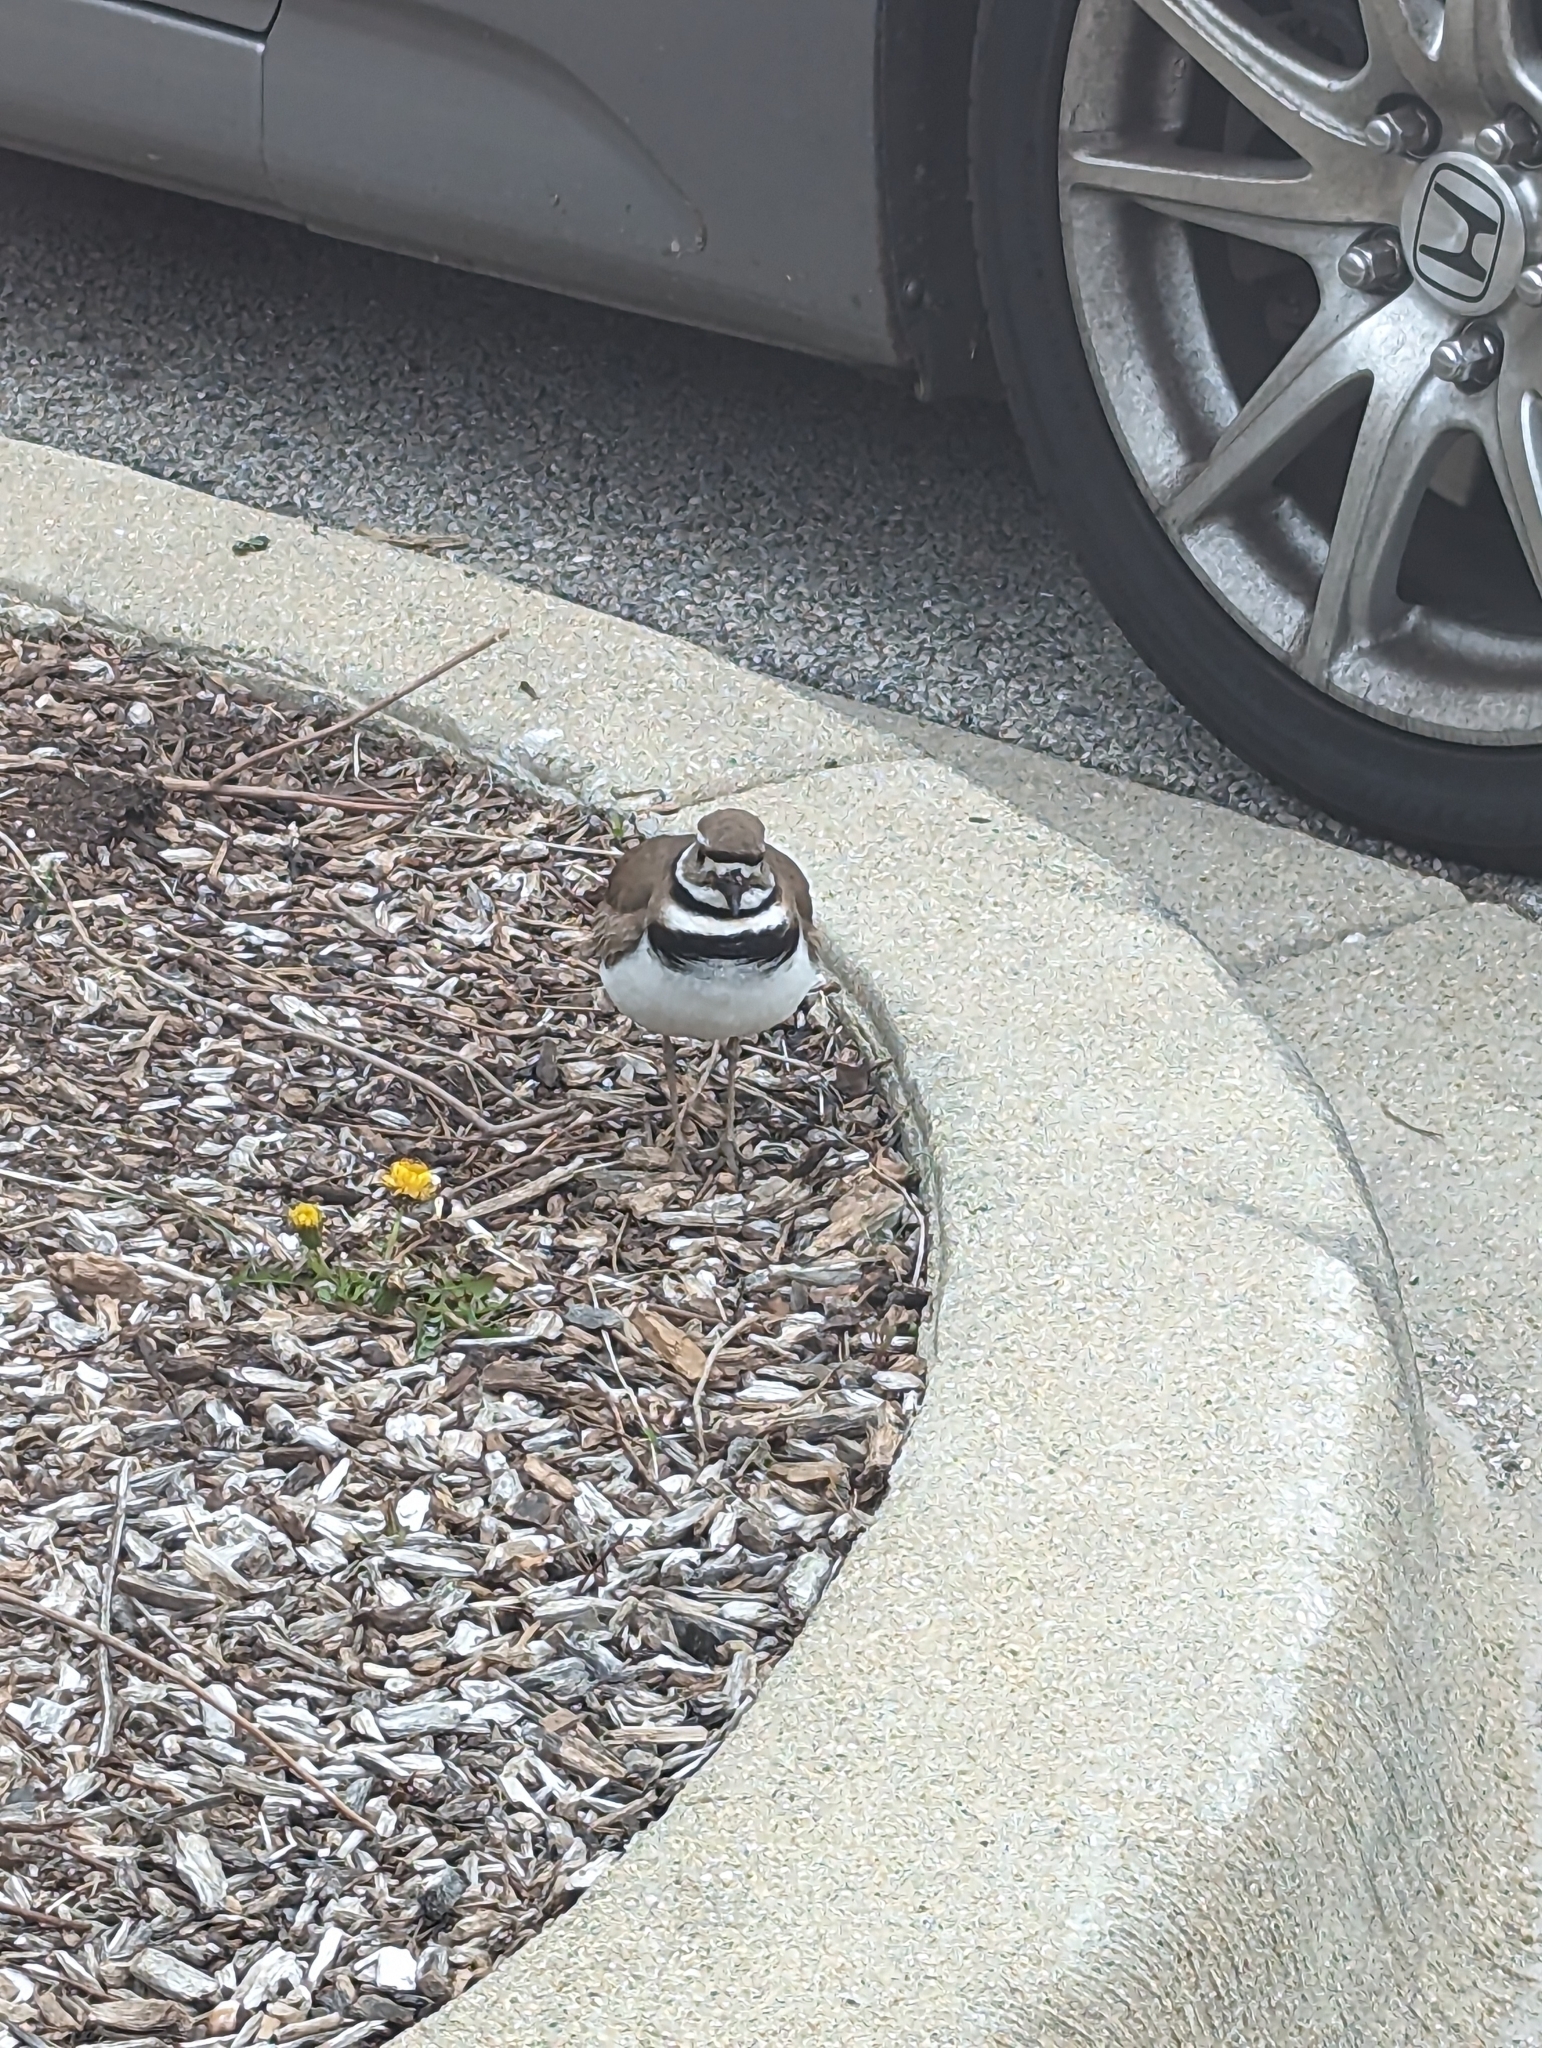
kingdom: Animalia
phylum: Chordata
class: Aves
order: Charadriiformes
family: Charadriidae
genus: Charadrius
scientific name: Charadrius vociferus
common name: Killdeer
